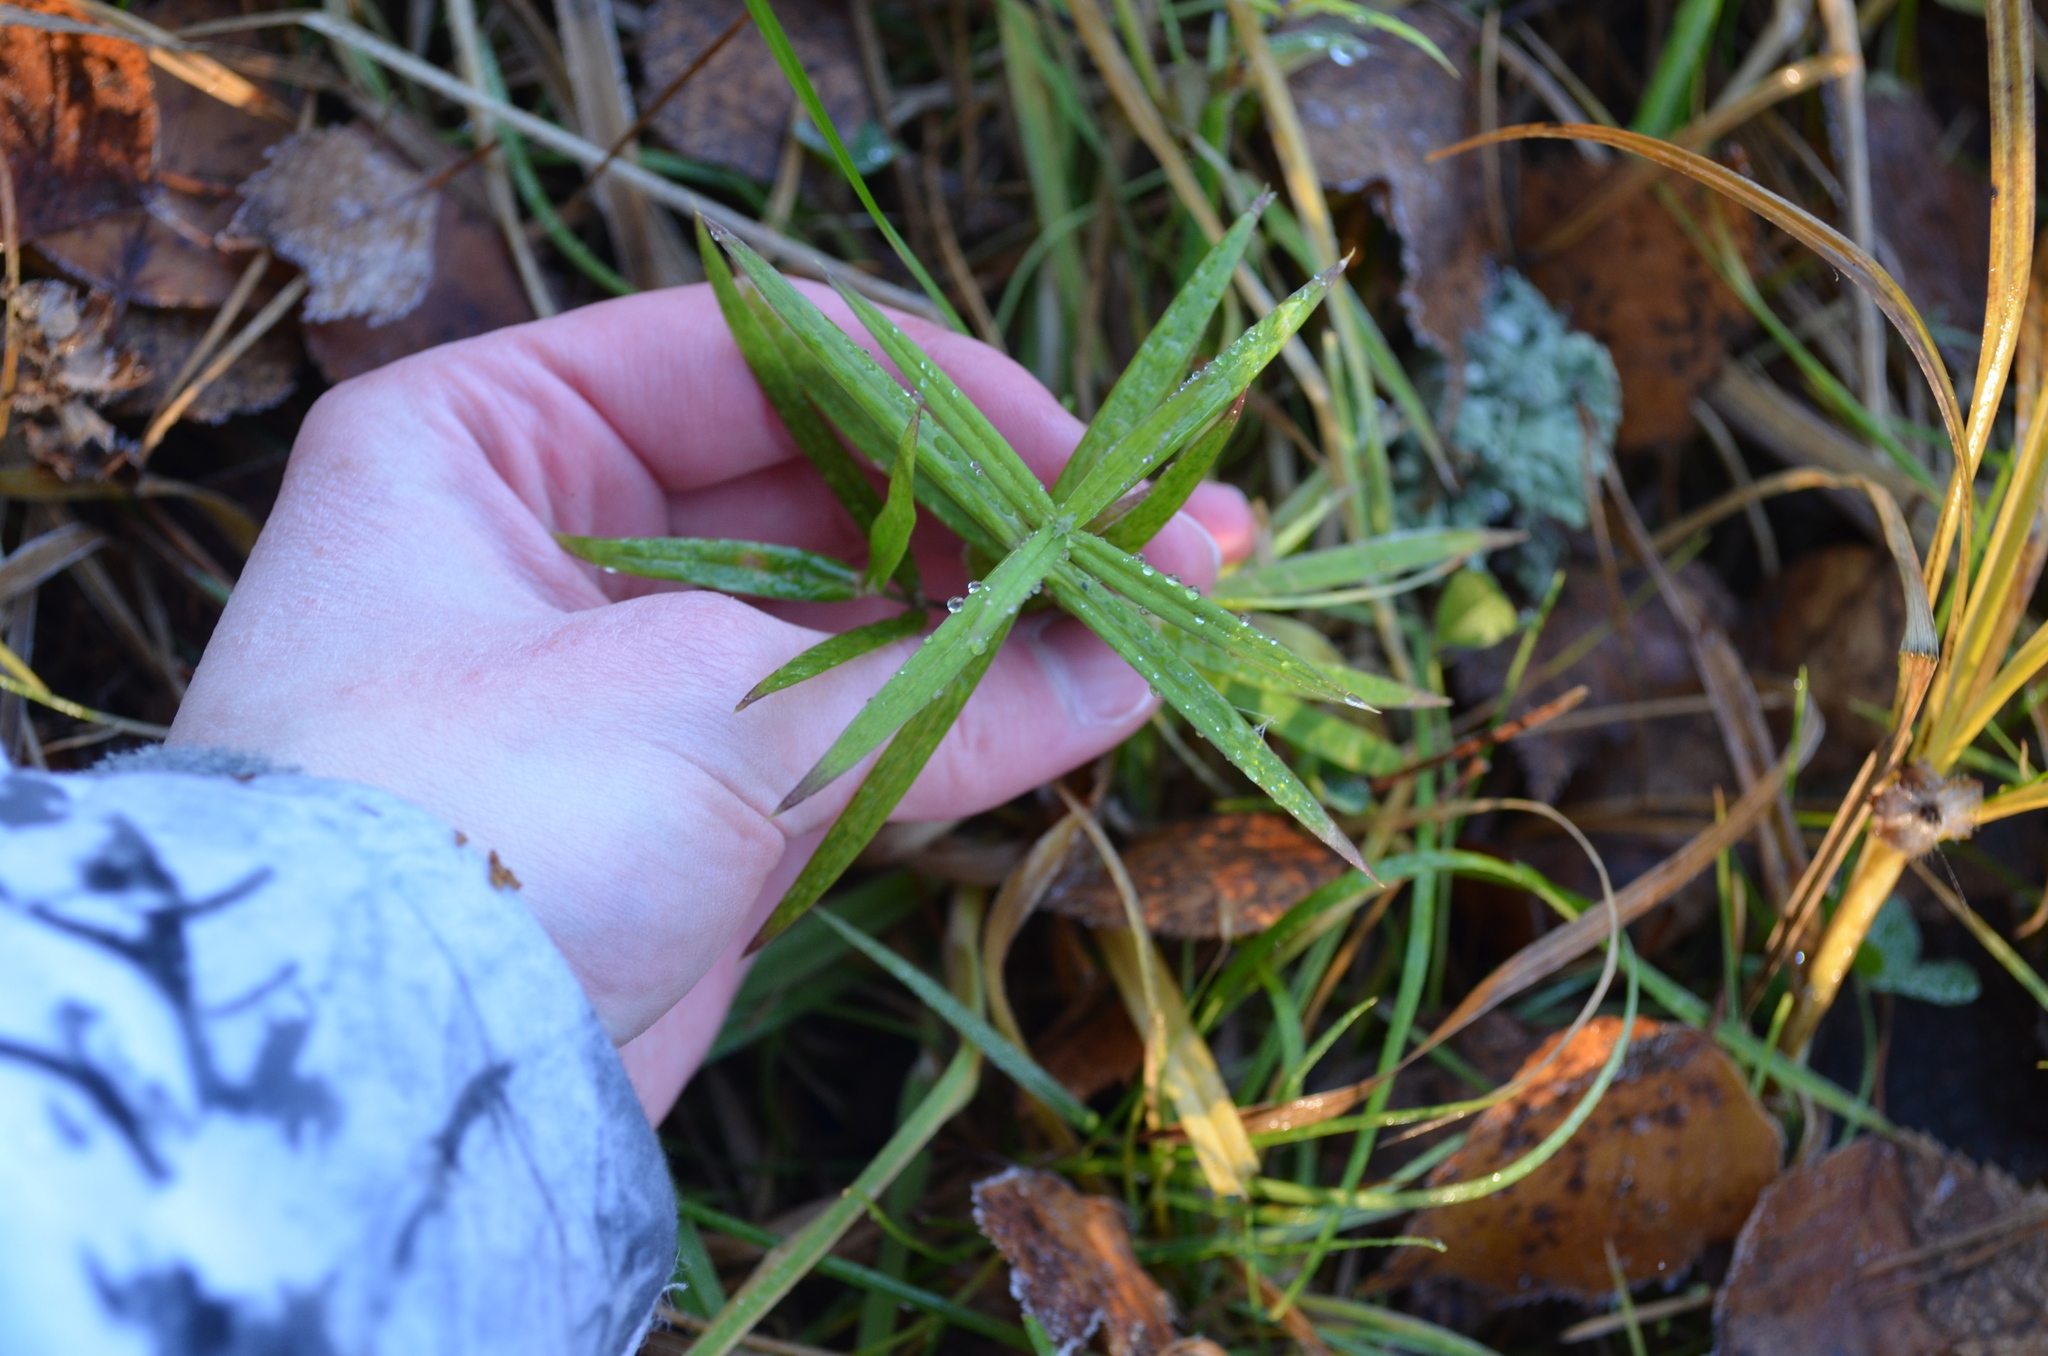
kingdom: Plantae
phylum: Tracheophyta
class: Magnoliopsida
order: Caryophyllales
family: Caryophyllaceae
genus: Rabelera
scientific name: Rabelera holostea
